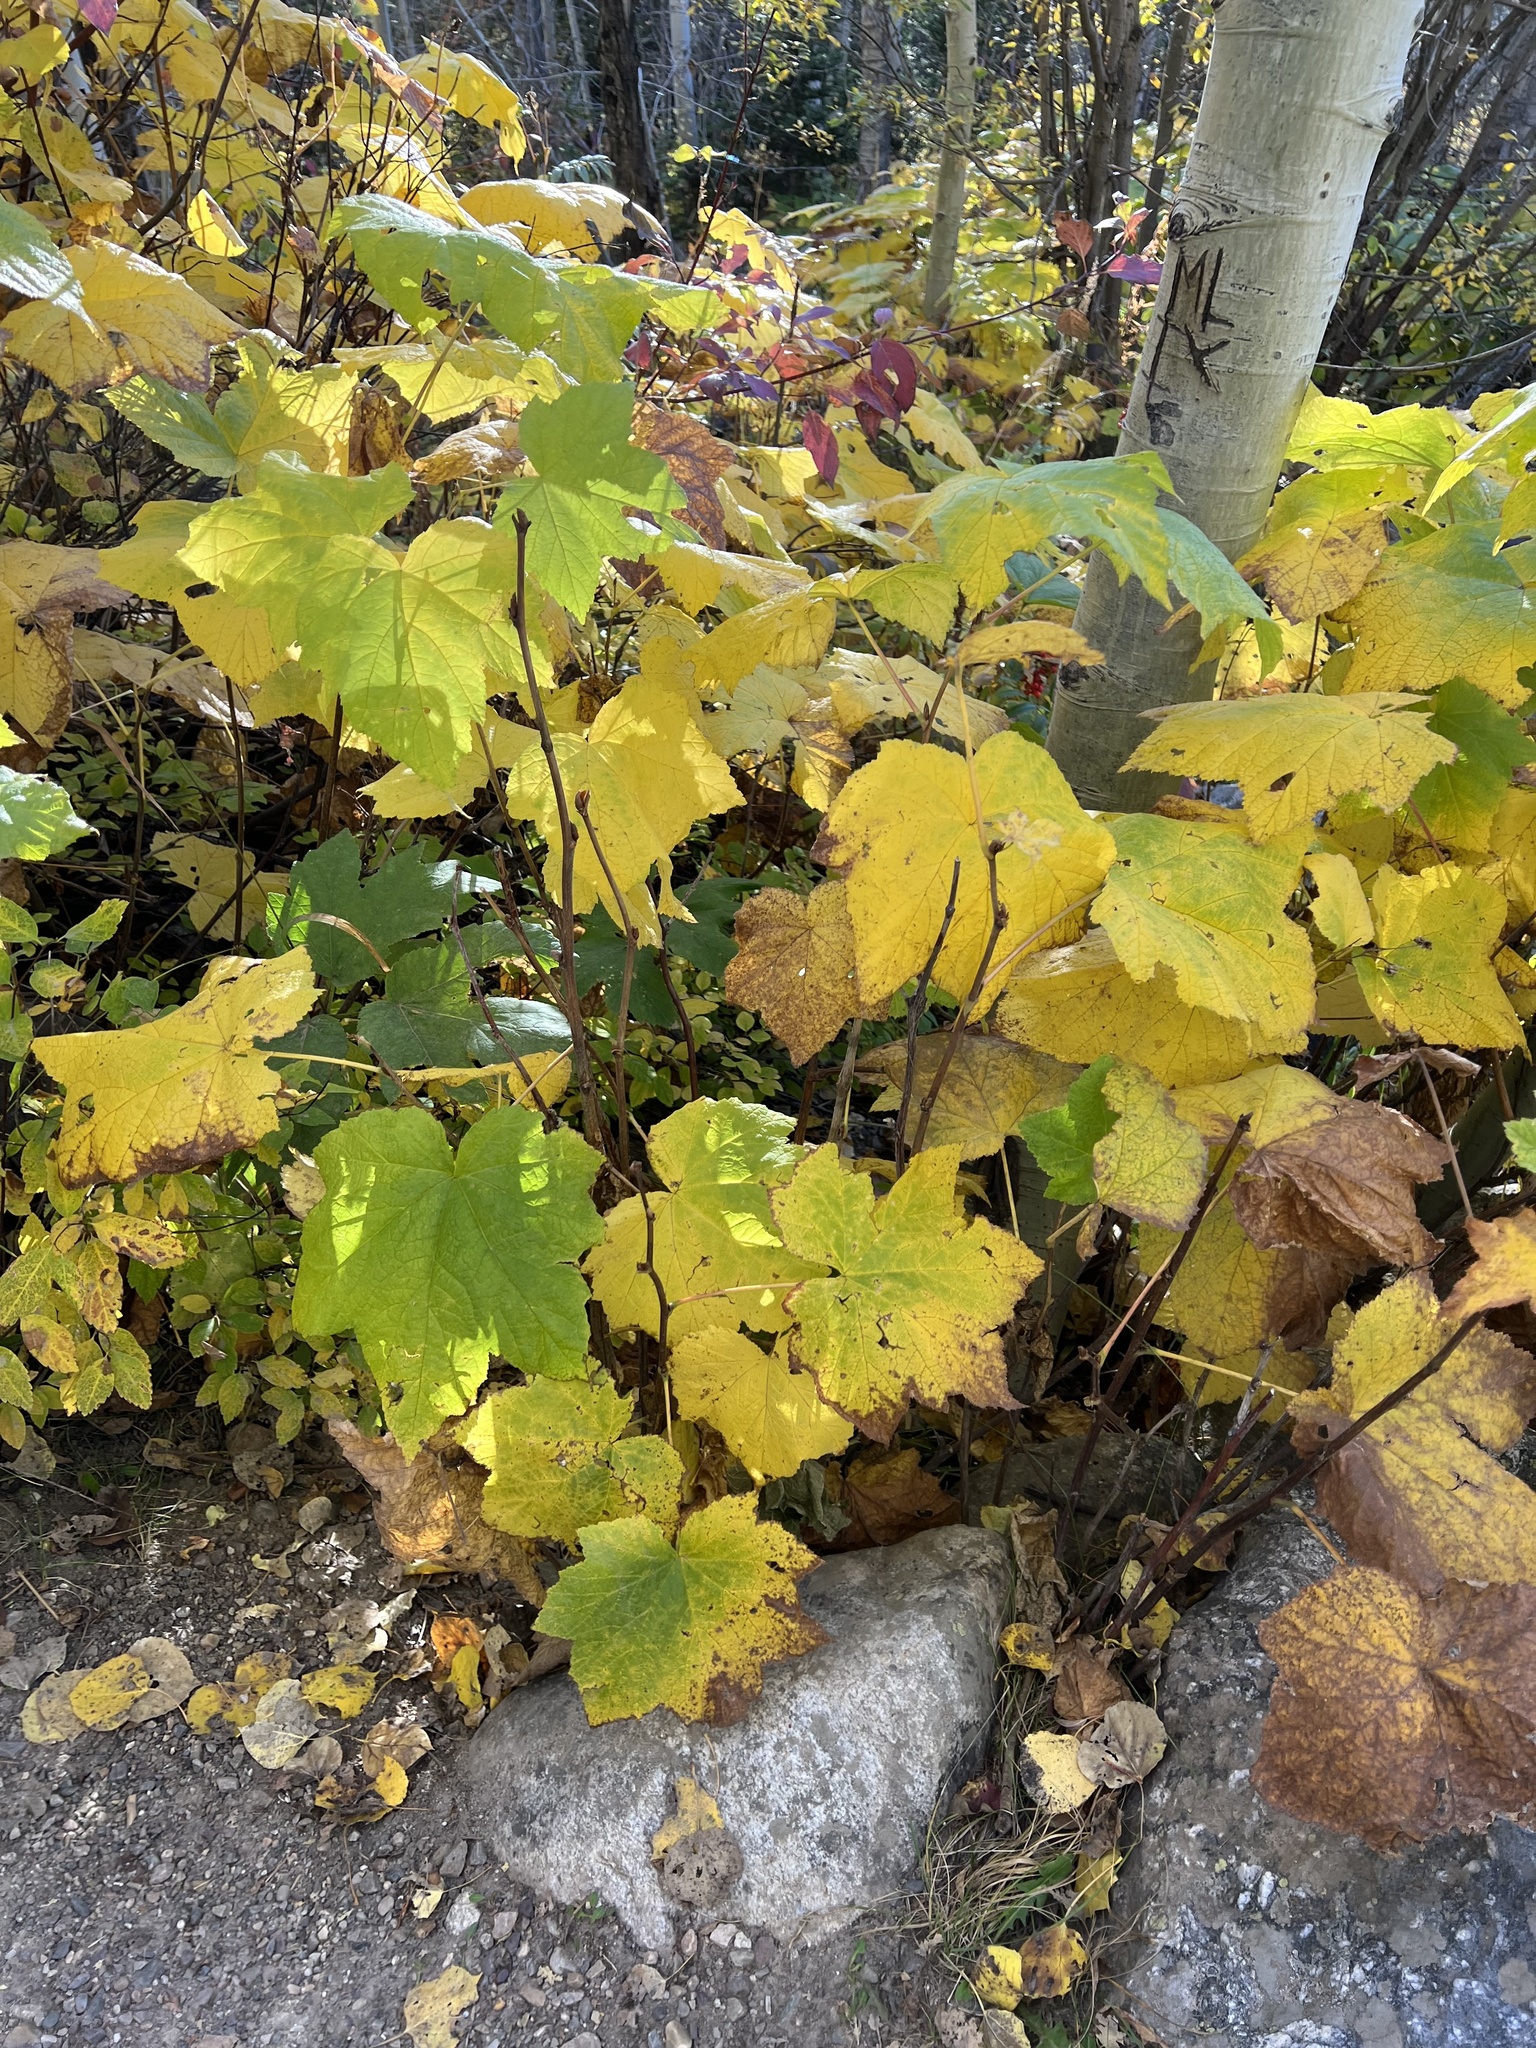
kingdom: Plantae
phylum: Tracheophyta
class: Magnoliopsida
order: Rosales
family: Rosaceae
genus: Rubus
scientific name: Rubus parviflorus
